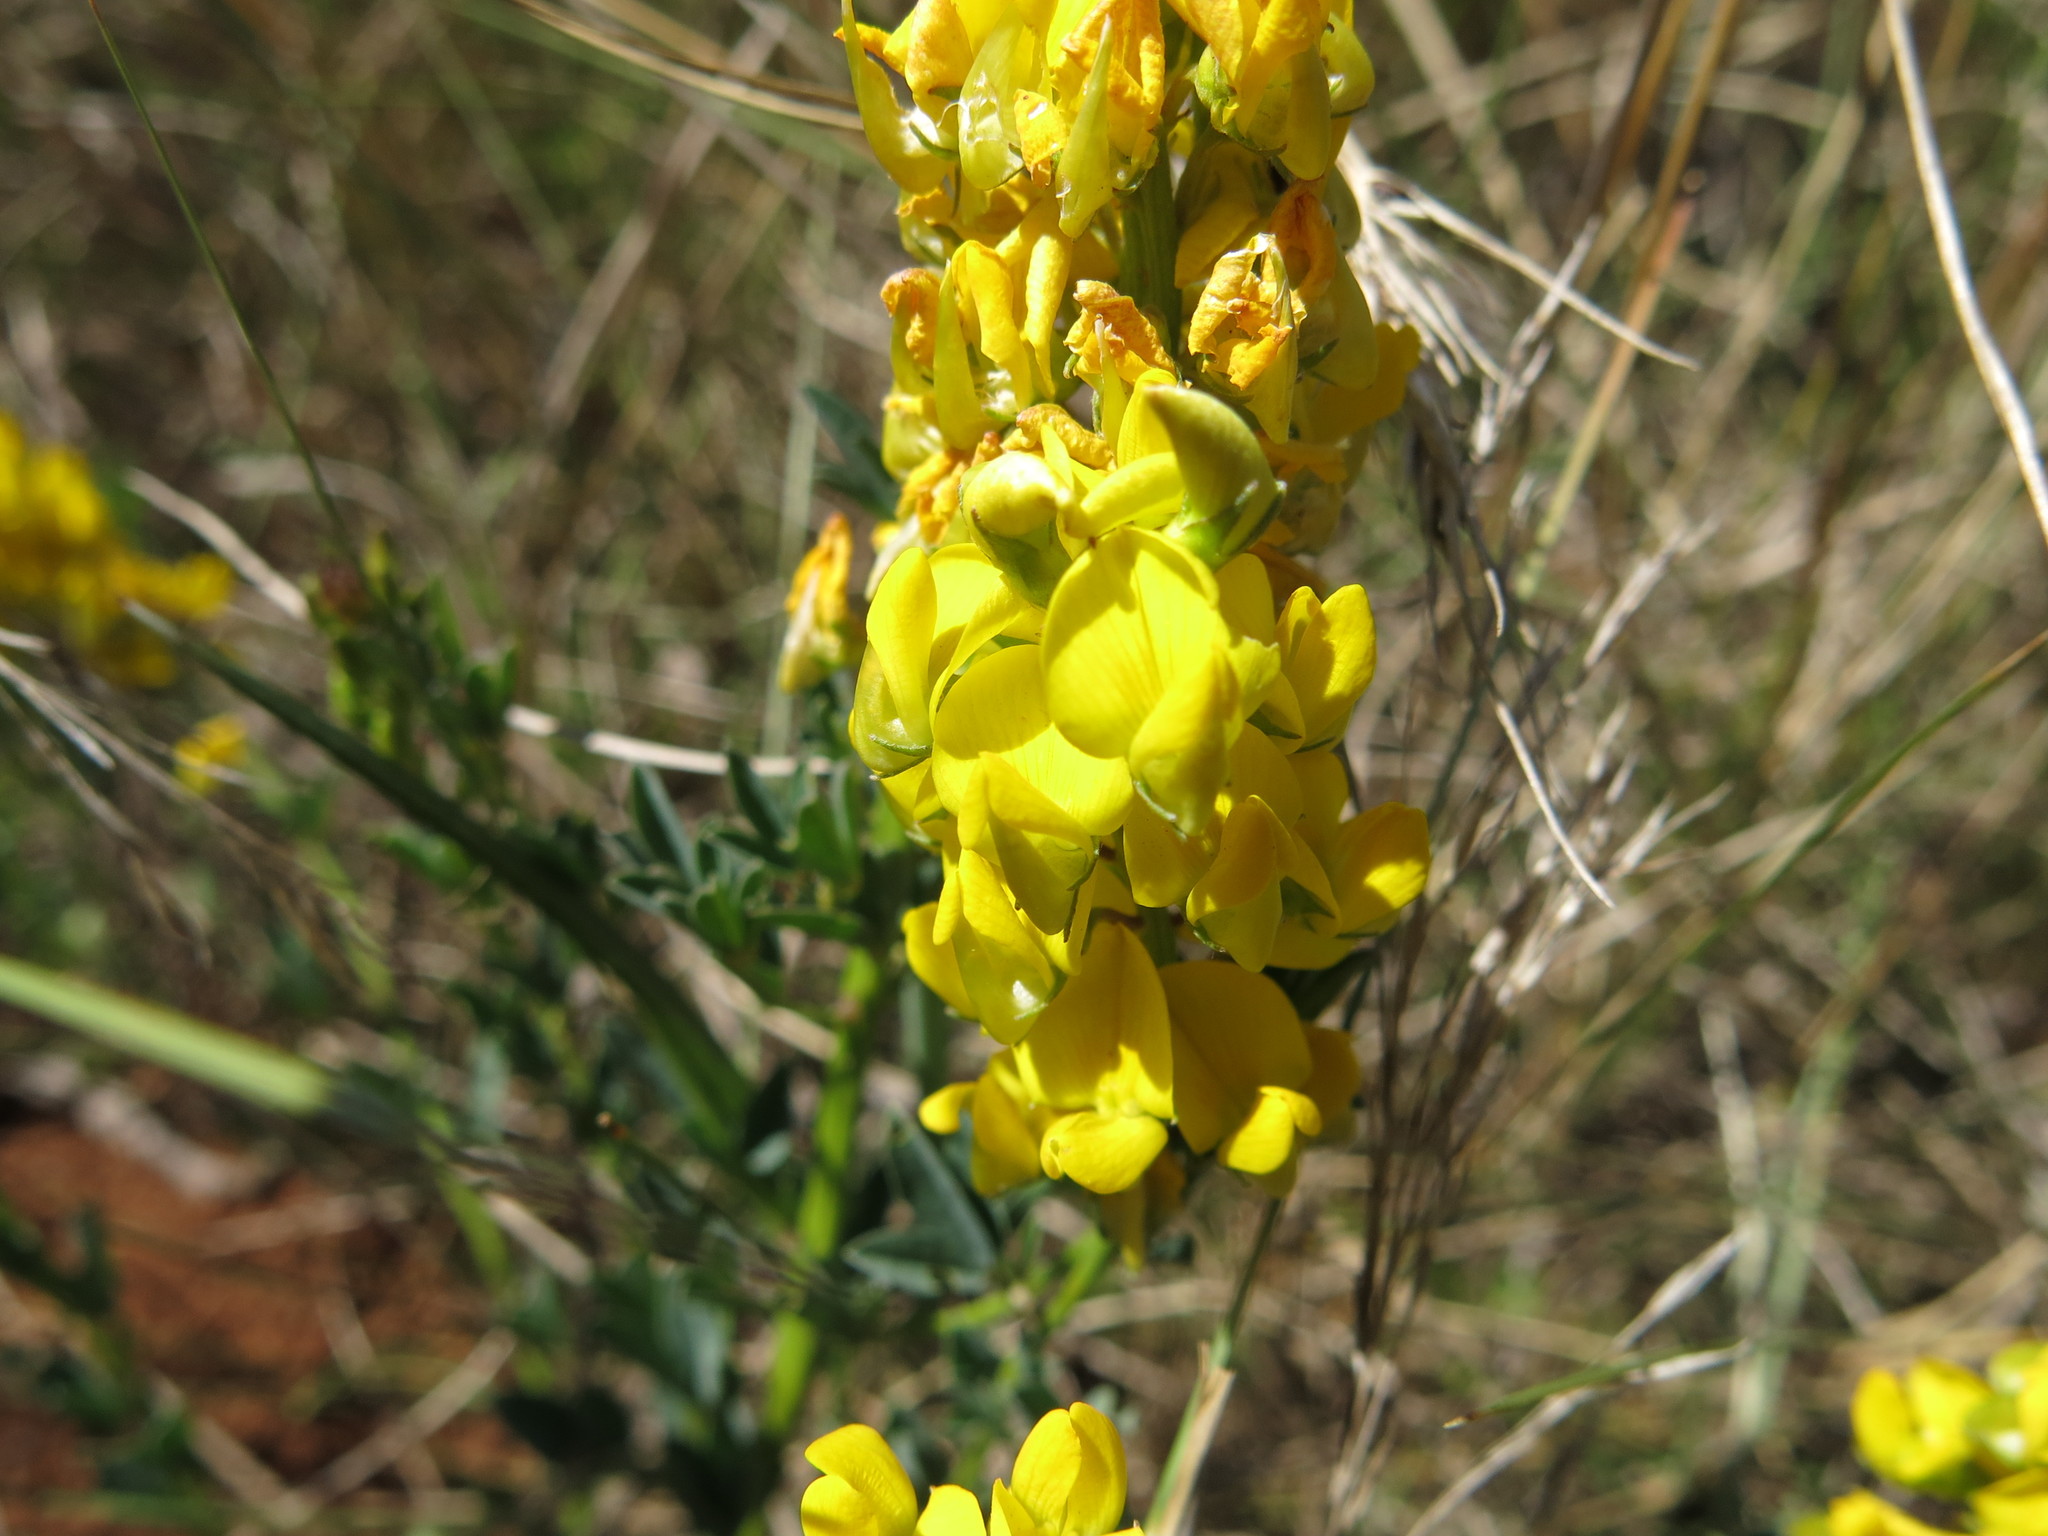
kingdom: Plantae
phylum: Tracheophyta
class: Magnoliopsida
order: Fabales
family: Fabaceae
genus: Crotalaria
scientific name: Crotalaria globifera
